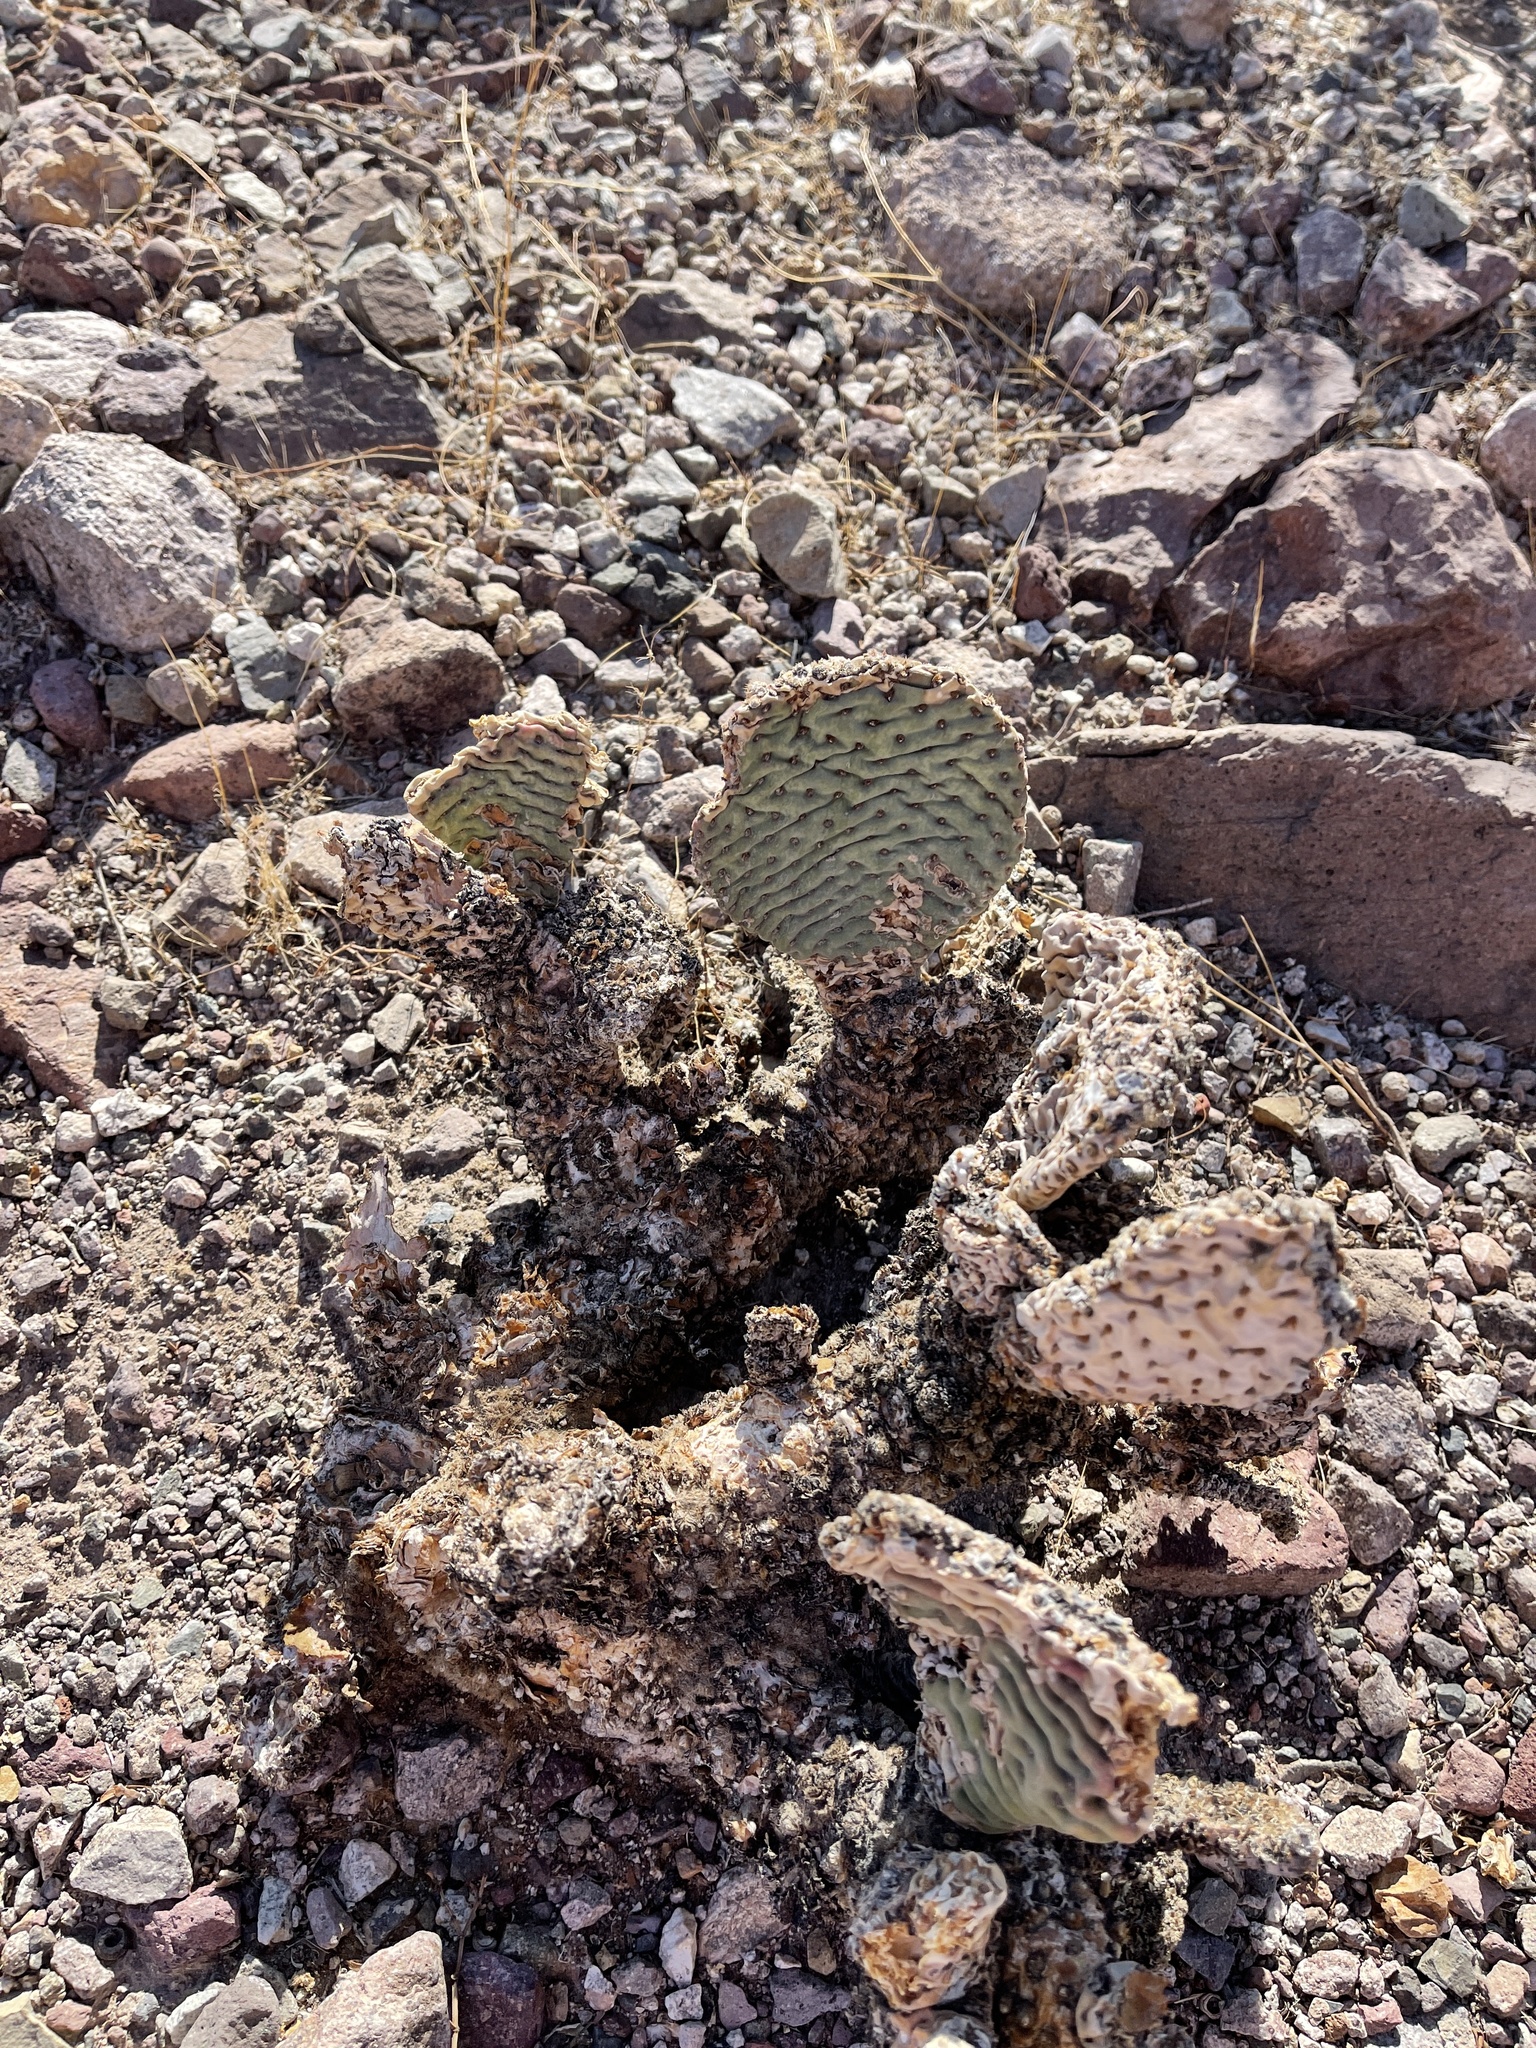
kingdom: Plantae
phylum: Tracheophyta
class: Magnoliopsida
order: Caryophyllales
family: Cactaceae
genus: Opuntia
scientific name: Opuntia basilaris
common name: Beavertail prickly-pear
